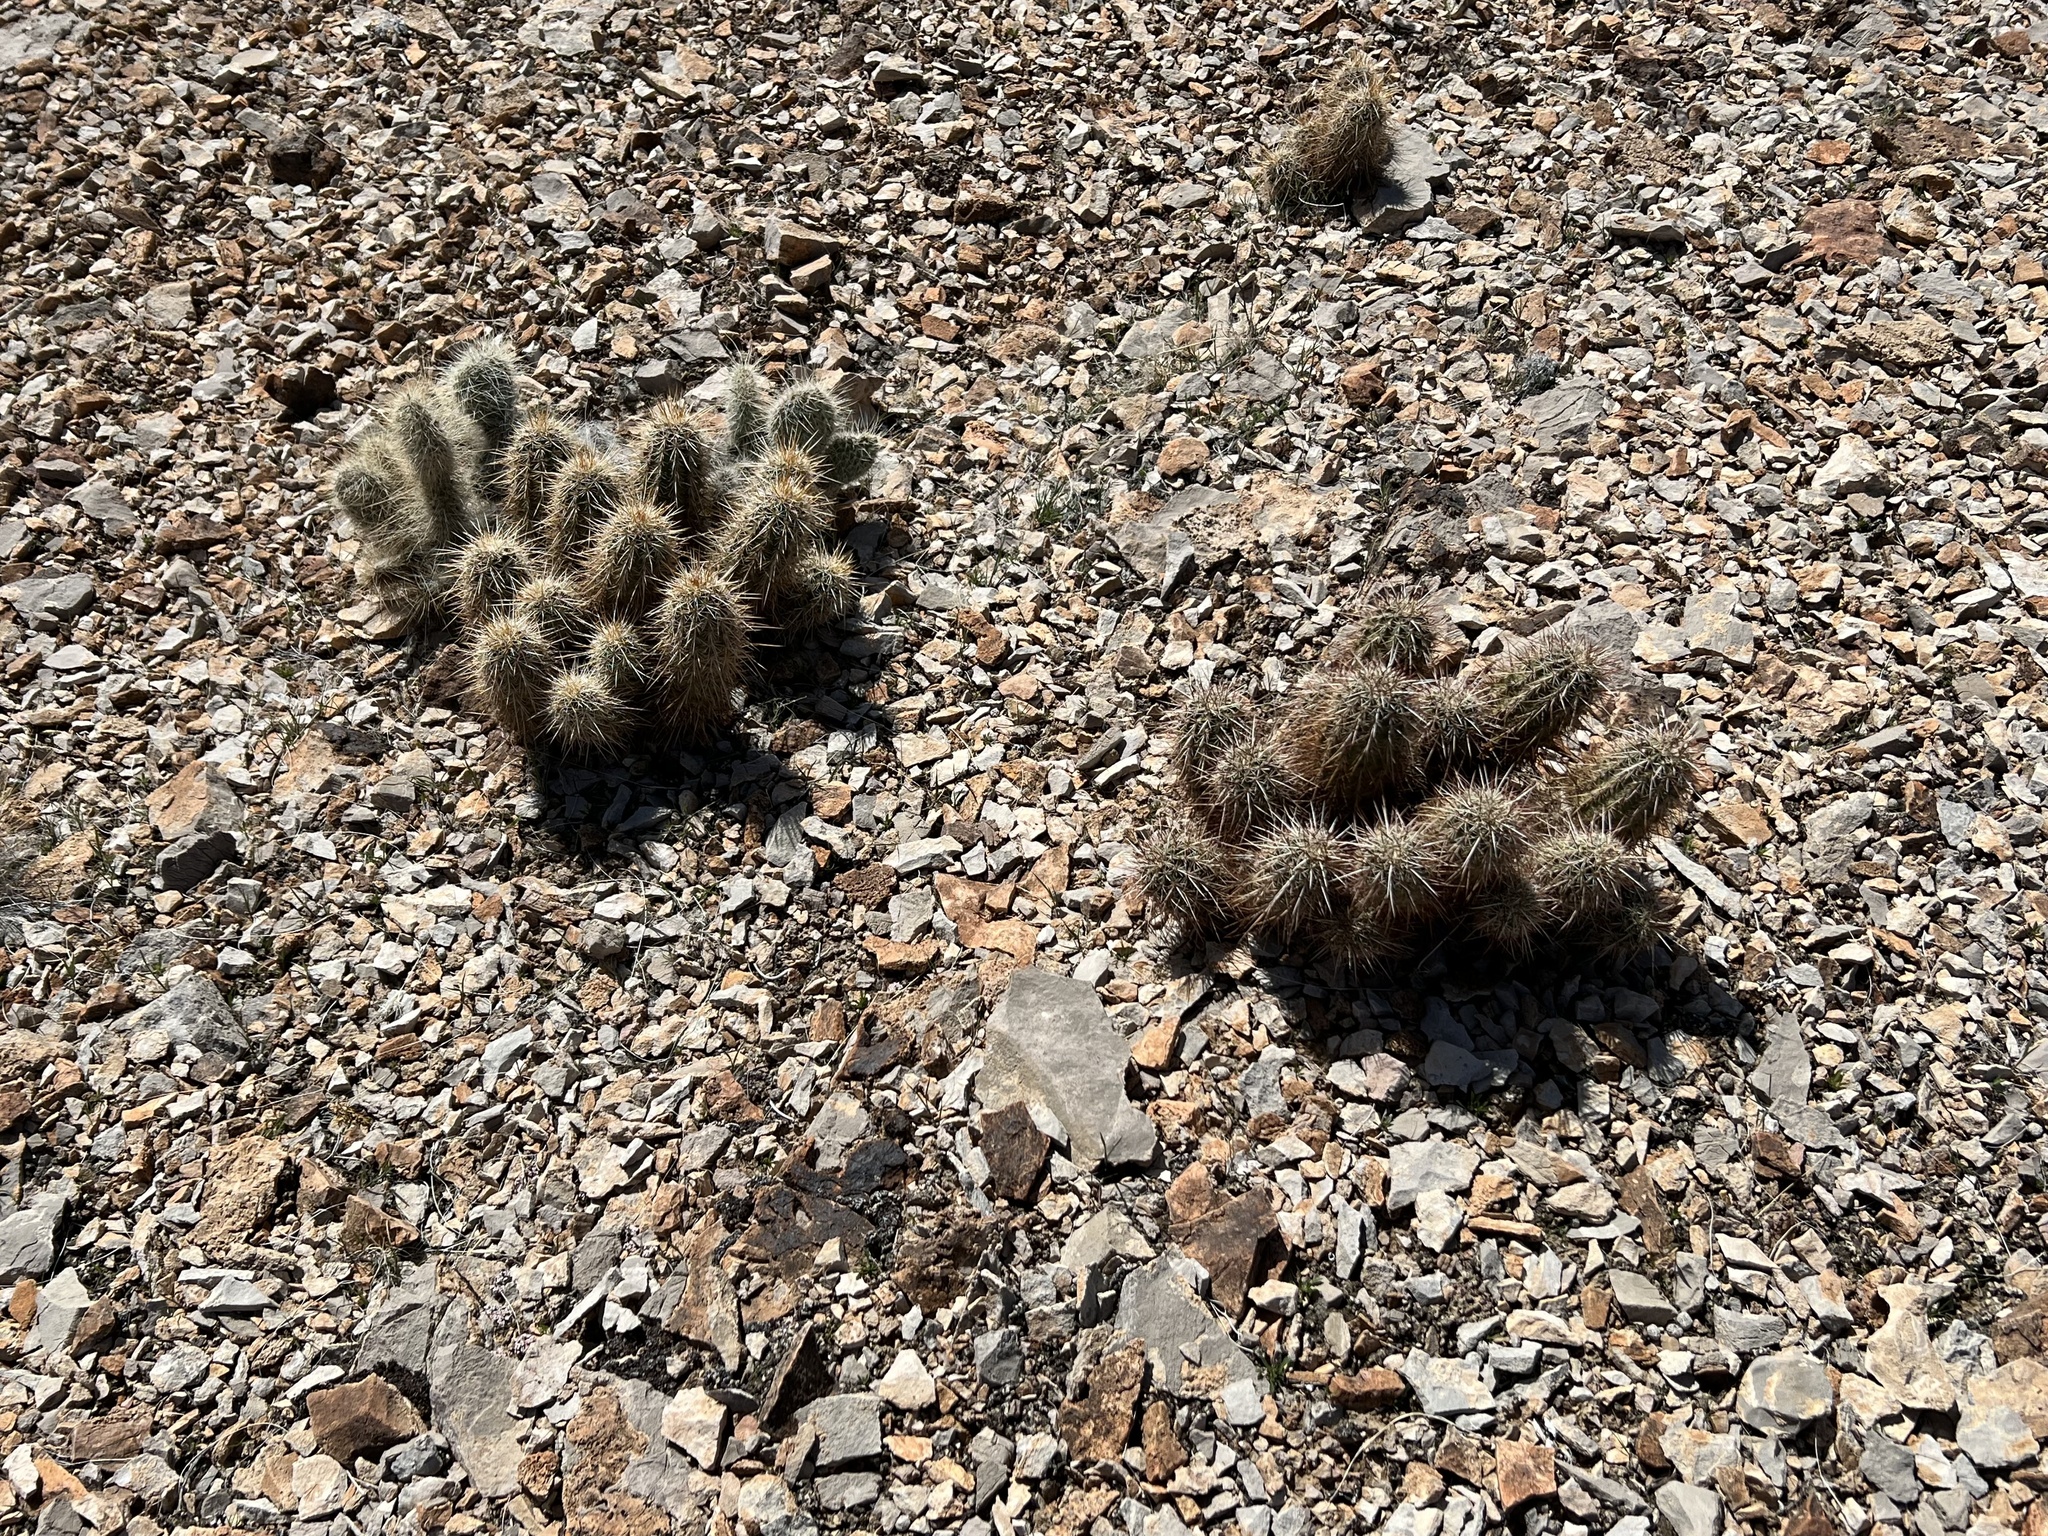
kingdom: Plantae
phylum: Tracheophyta
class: Magnoliopsida
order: Caryophyllales
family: Cactaceae
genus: Echinocereus
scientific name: Echinocereus engelmannii
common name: Engelmann's hedgehog cactus
